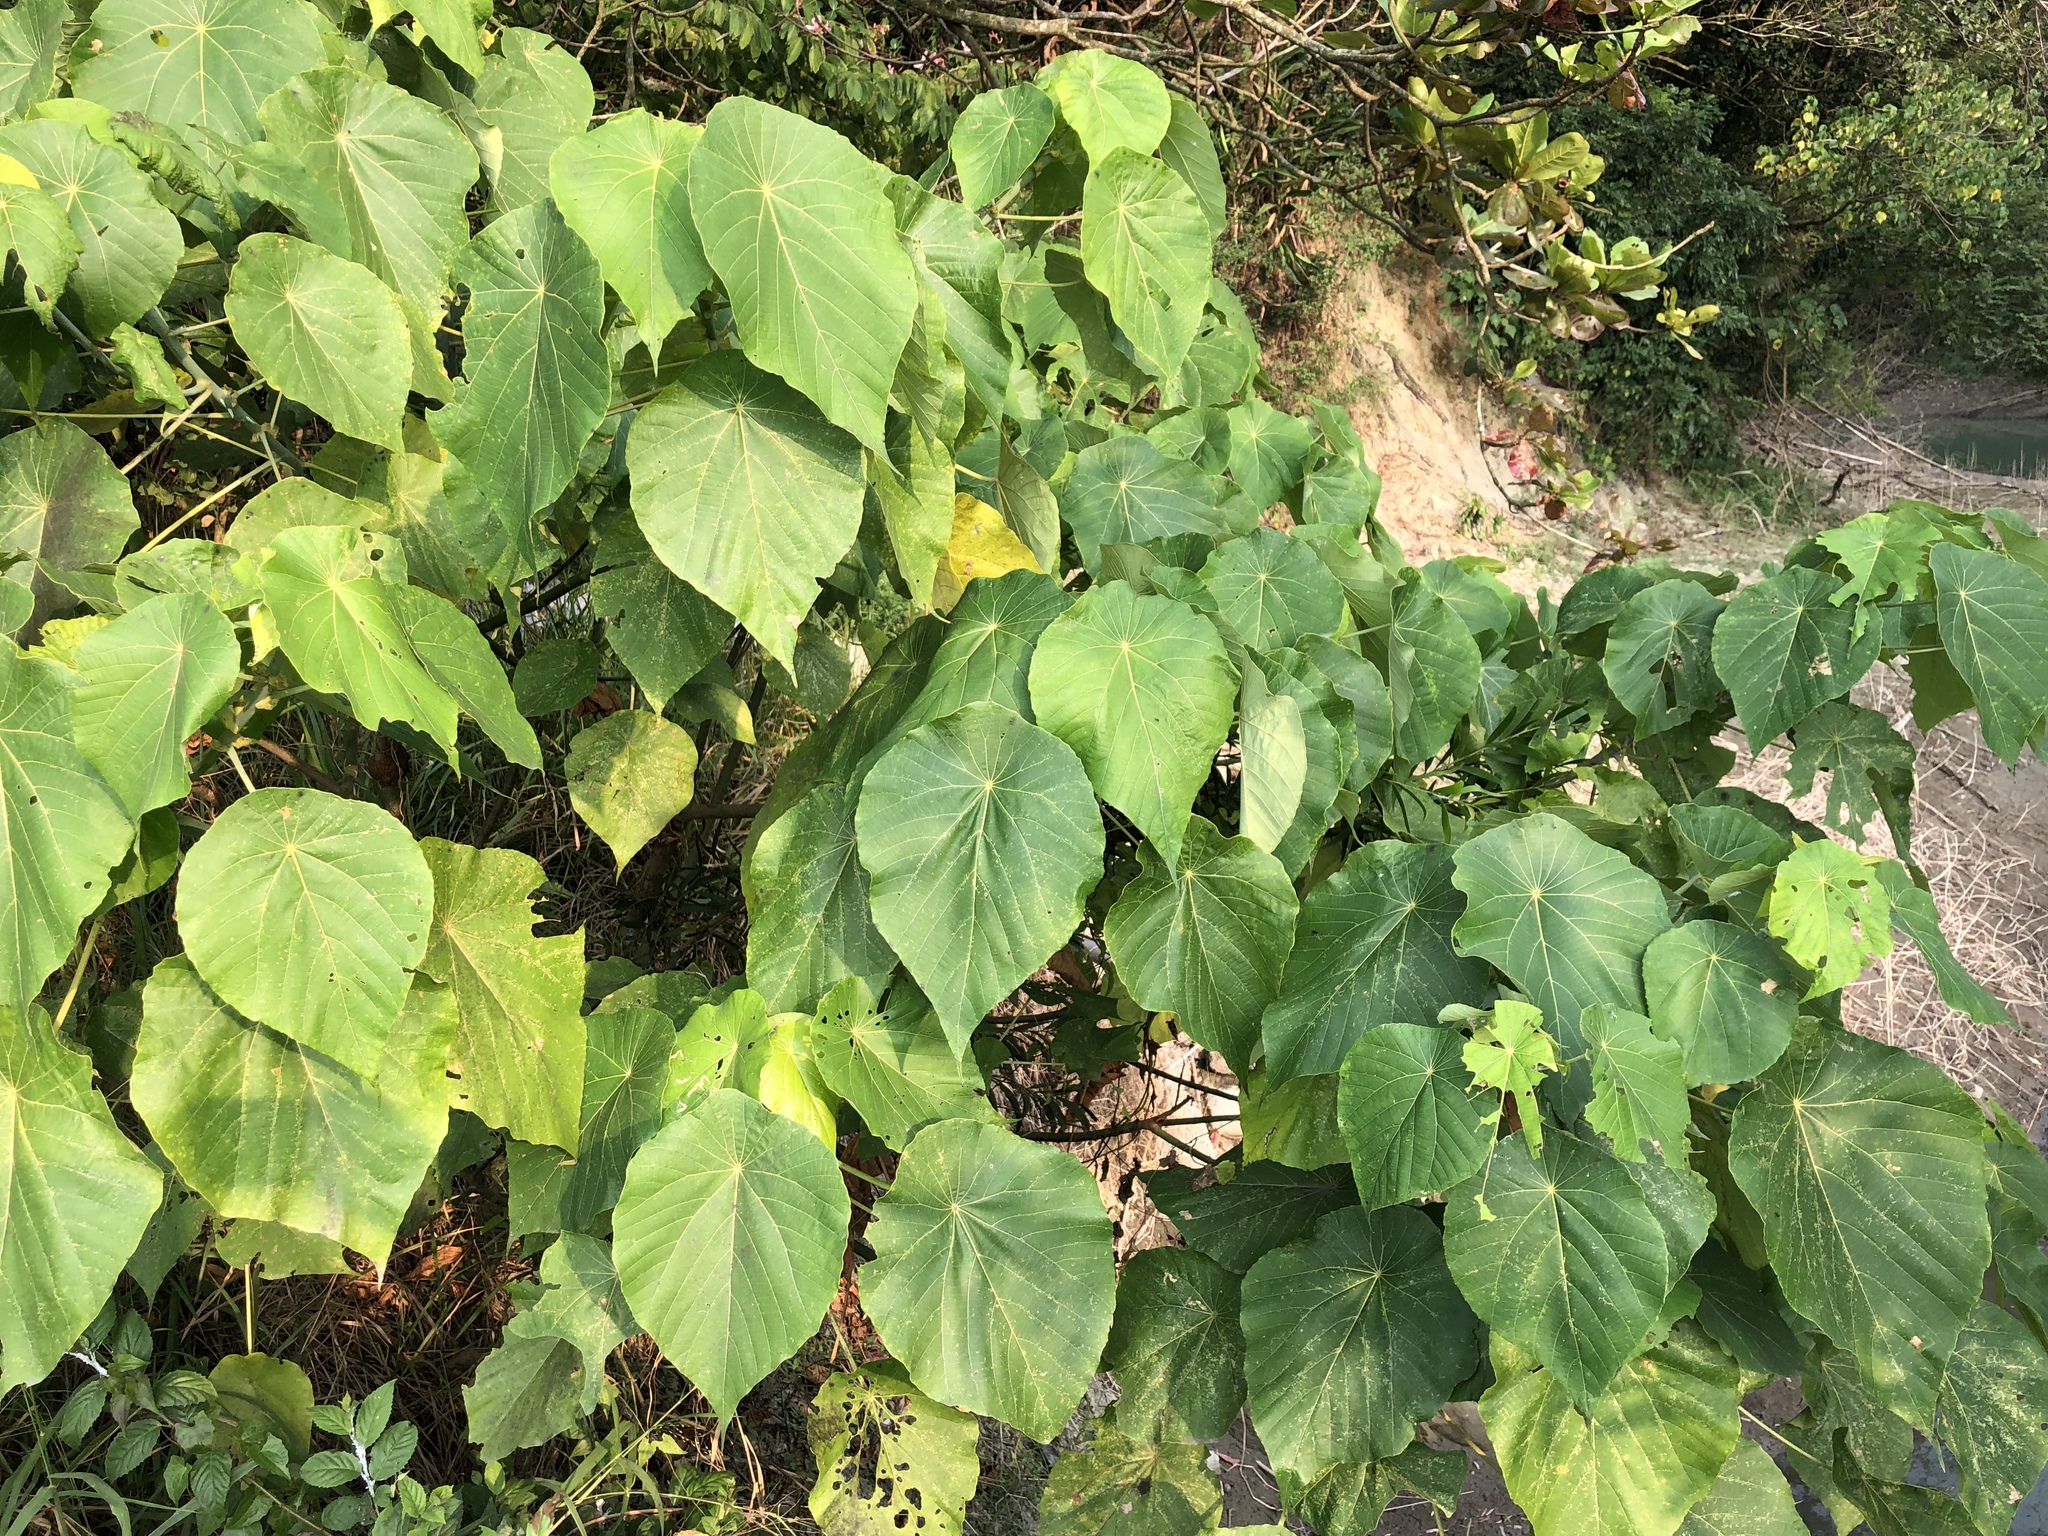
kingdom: Plantae
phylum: Tracheophyta
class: Magnoliopsida
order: Malpighiales
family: Euphorbiaceae
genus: Macaranga
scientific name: Macaranga tanarius
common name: Parasol leaf tree
